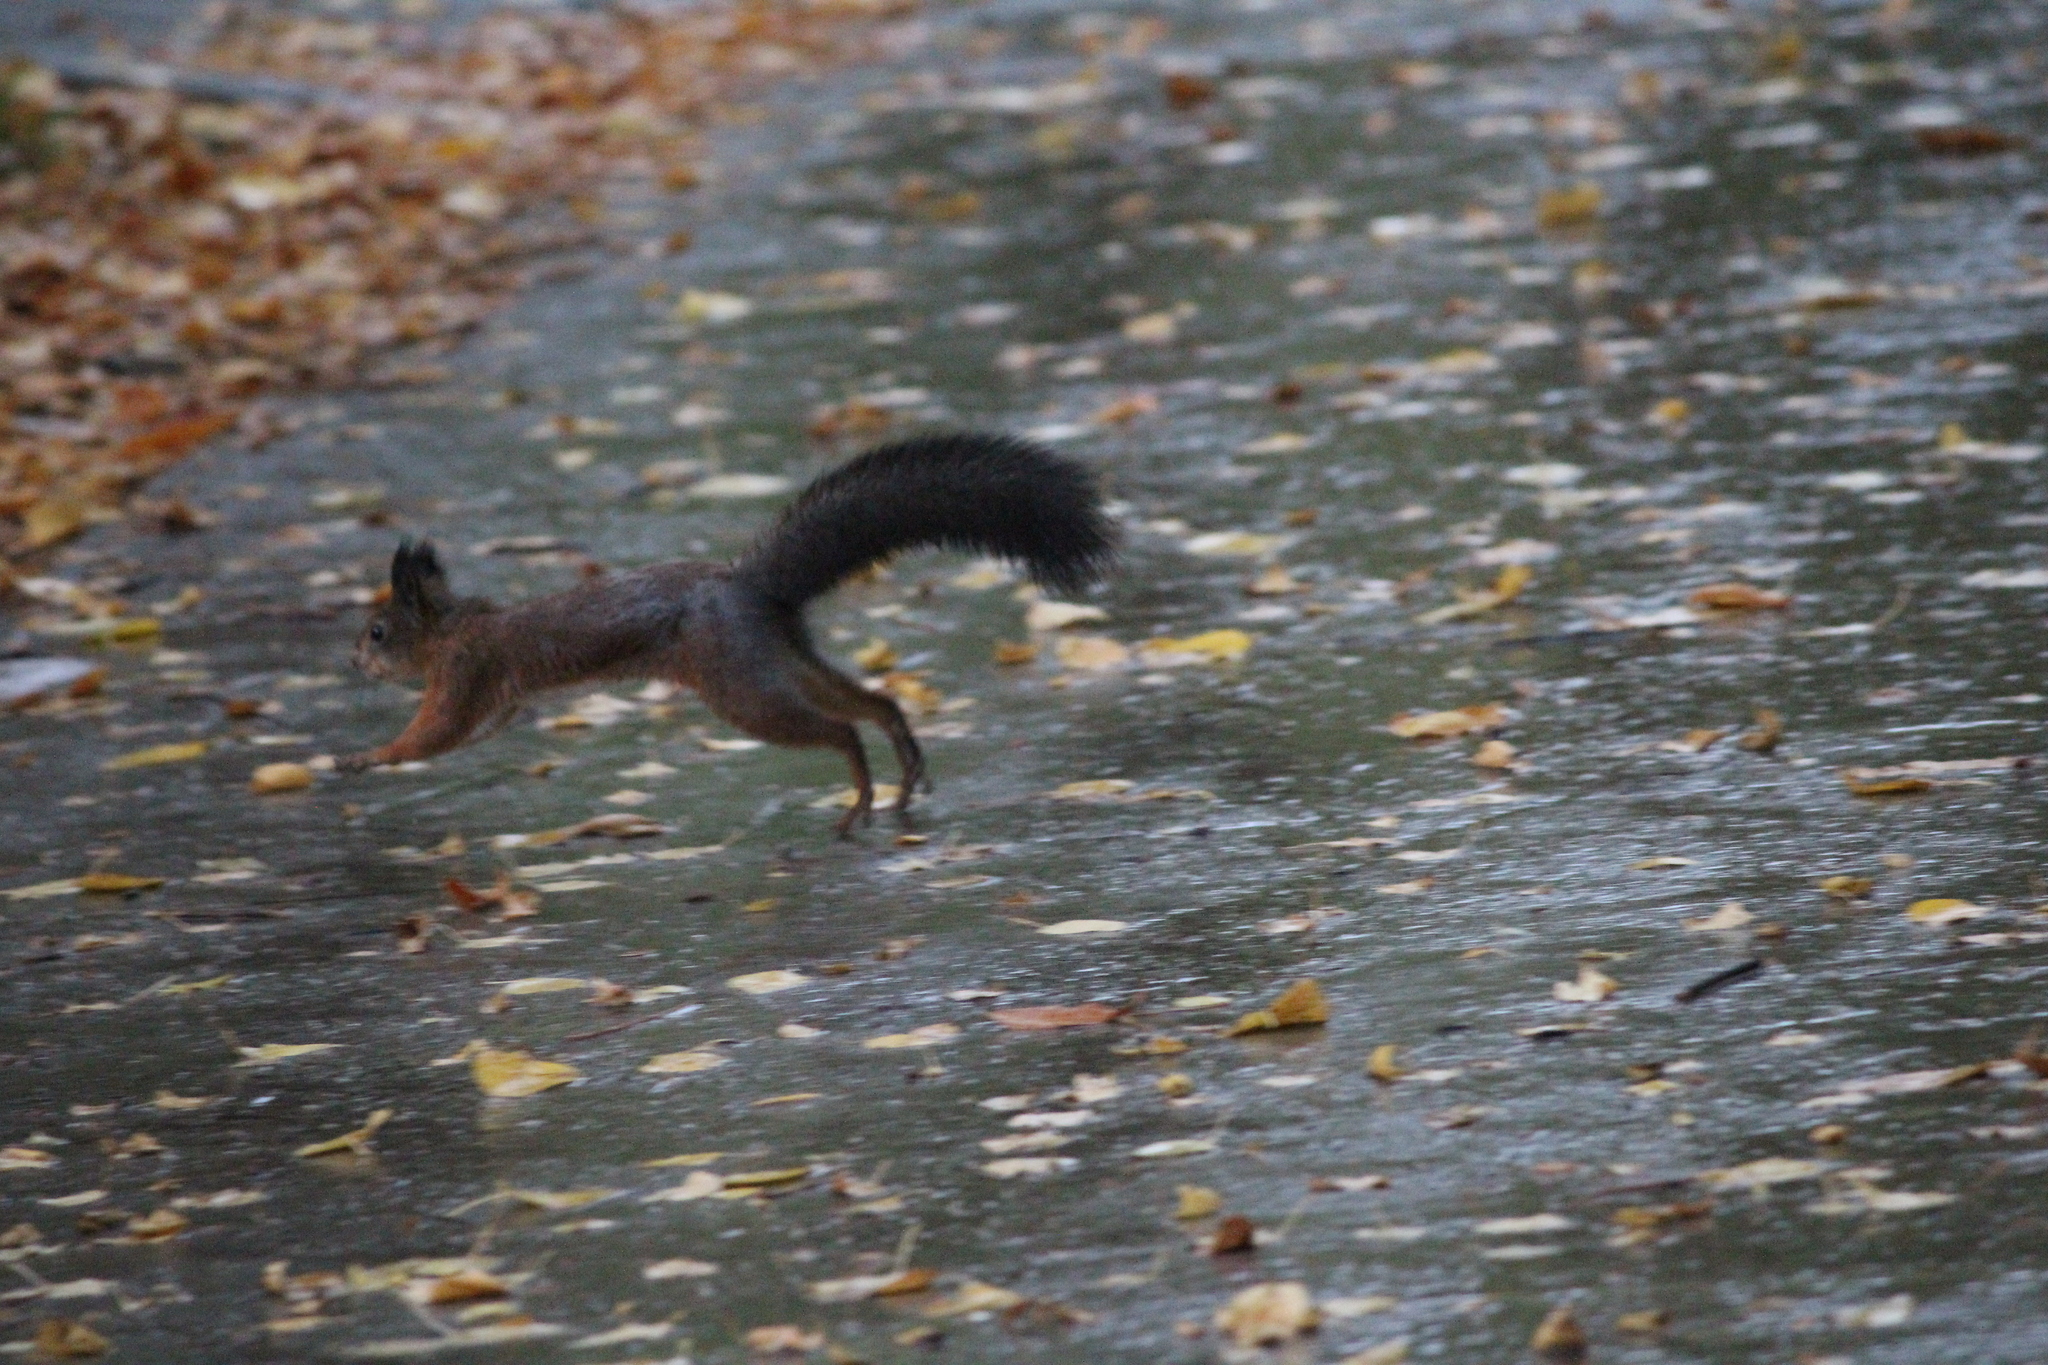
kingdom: Animalia
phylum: Chordata
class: Mammalia
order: Rodentia
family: Sciuridae
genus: Sciurus
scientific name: Sciurus vulgaris
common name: Eurasian red squirrel
